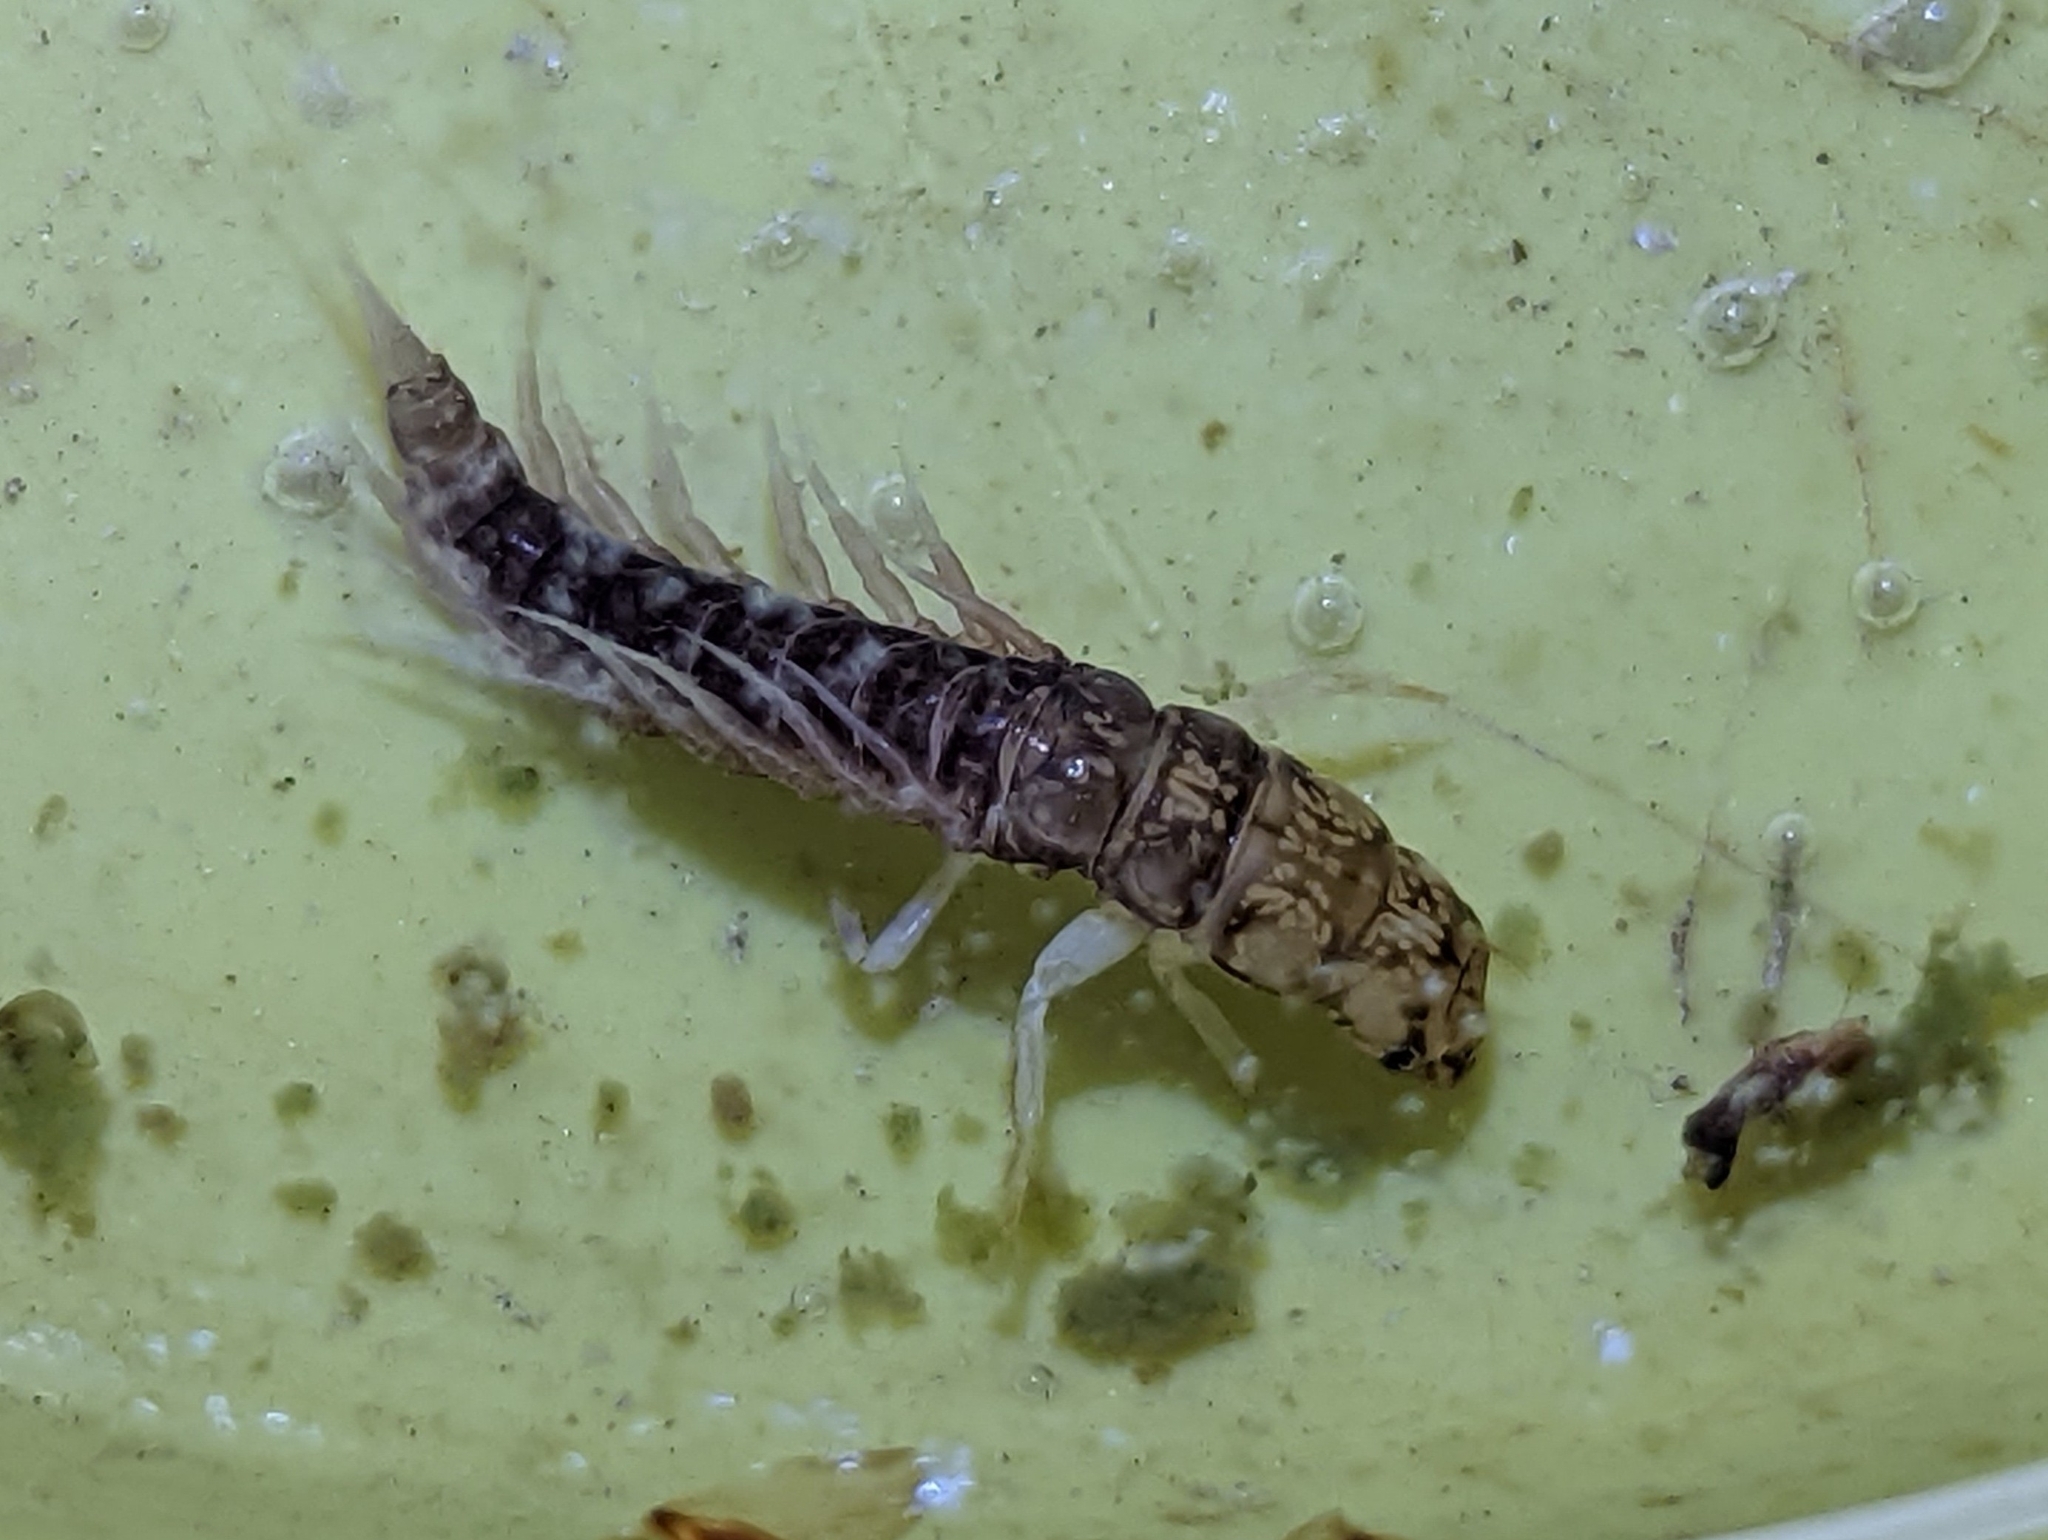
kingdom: Animalia
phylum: Arthropoda
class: Insecta
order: Megaloptera
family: Sialidae
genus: Sialis
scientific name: Sialis
